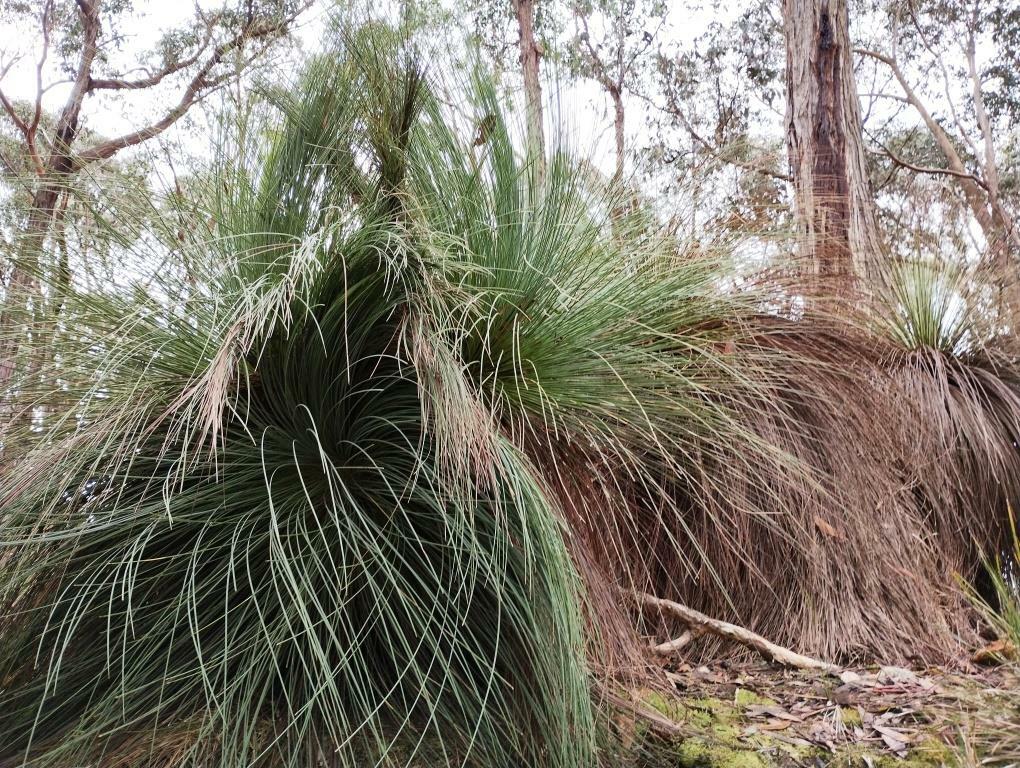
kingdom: Plantae
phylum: Tracheophyta
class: Liliopsida
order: Asparagales
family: Asphodelaceae
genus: Xanthorrhoea
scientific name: Xanthorrhoea australis
